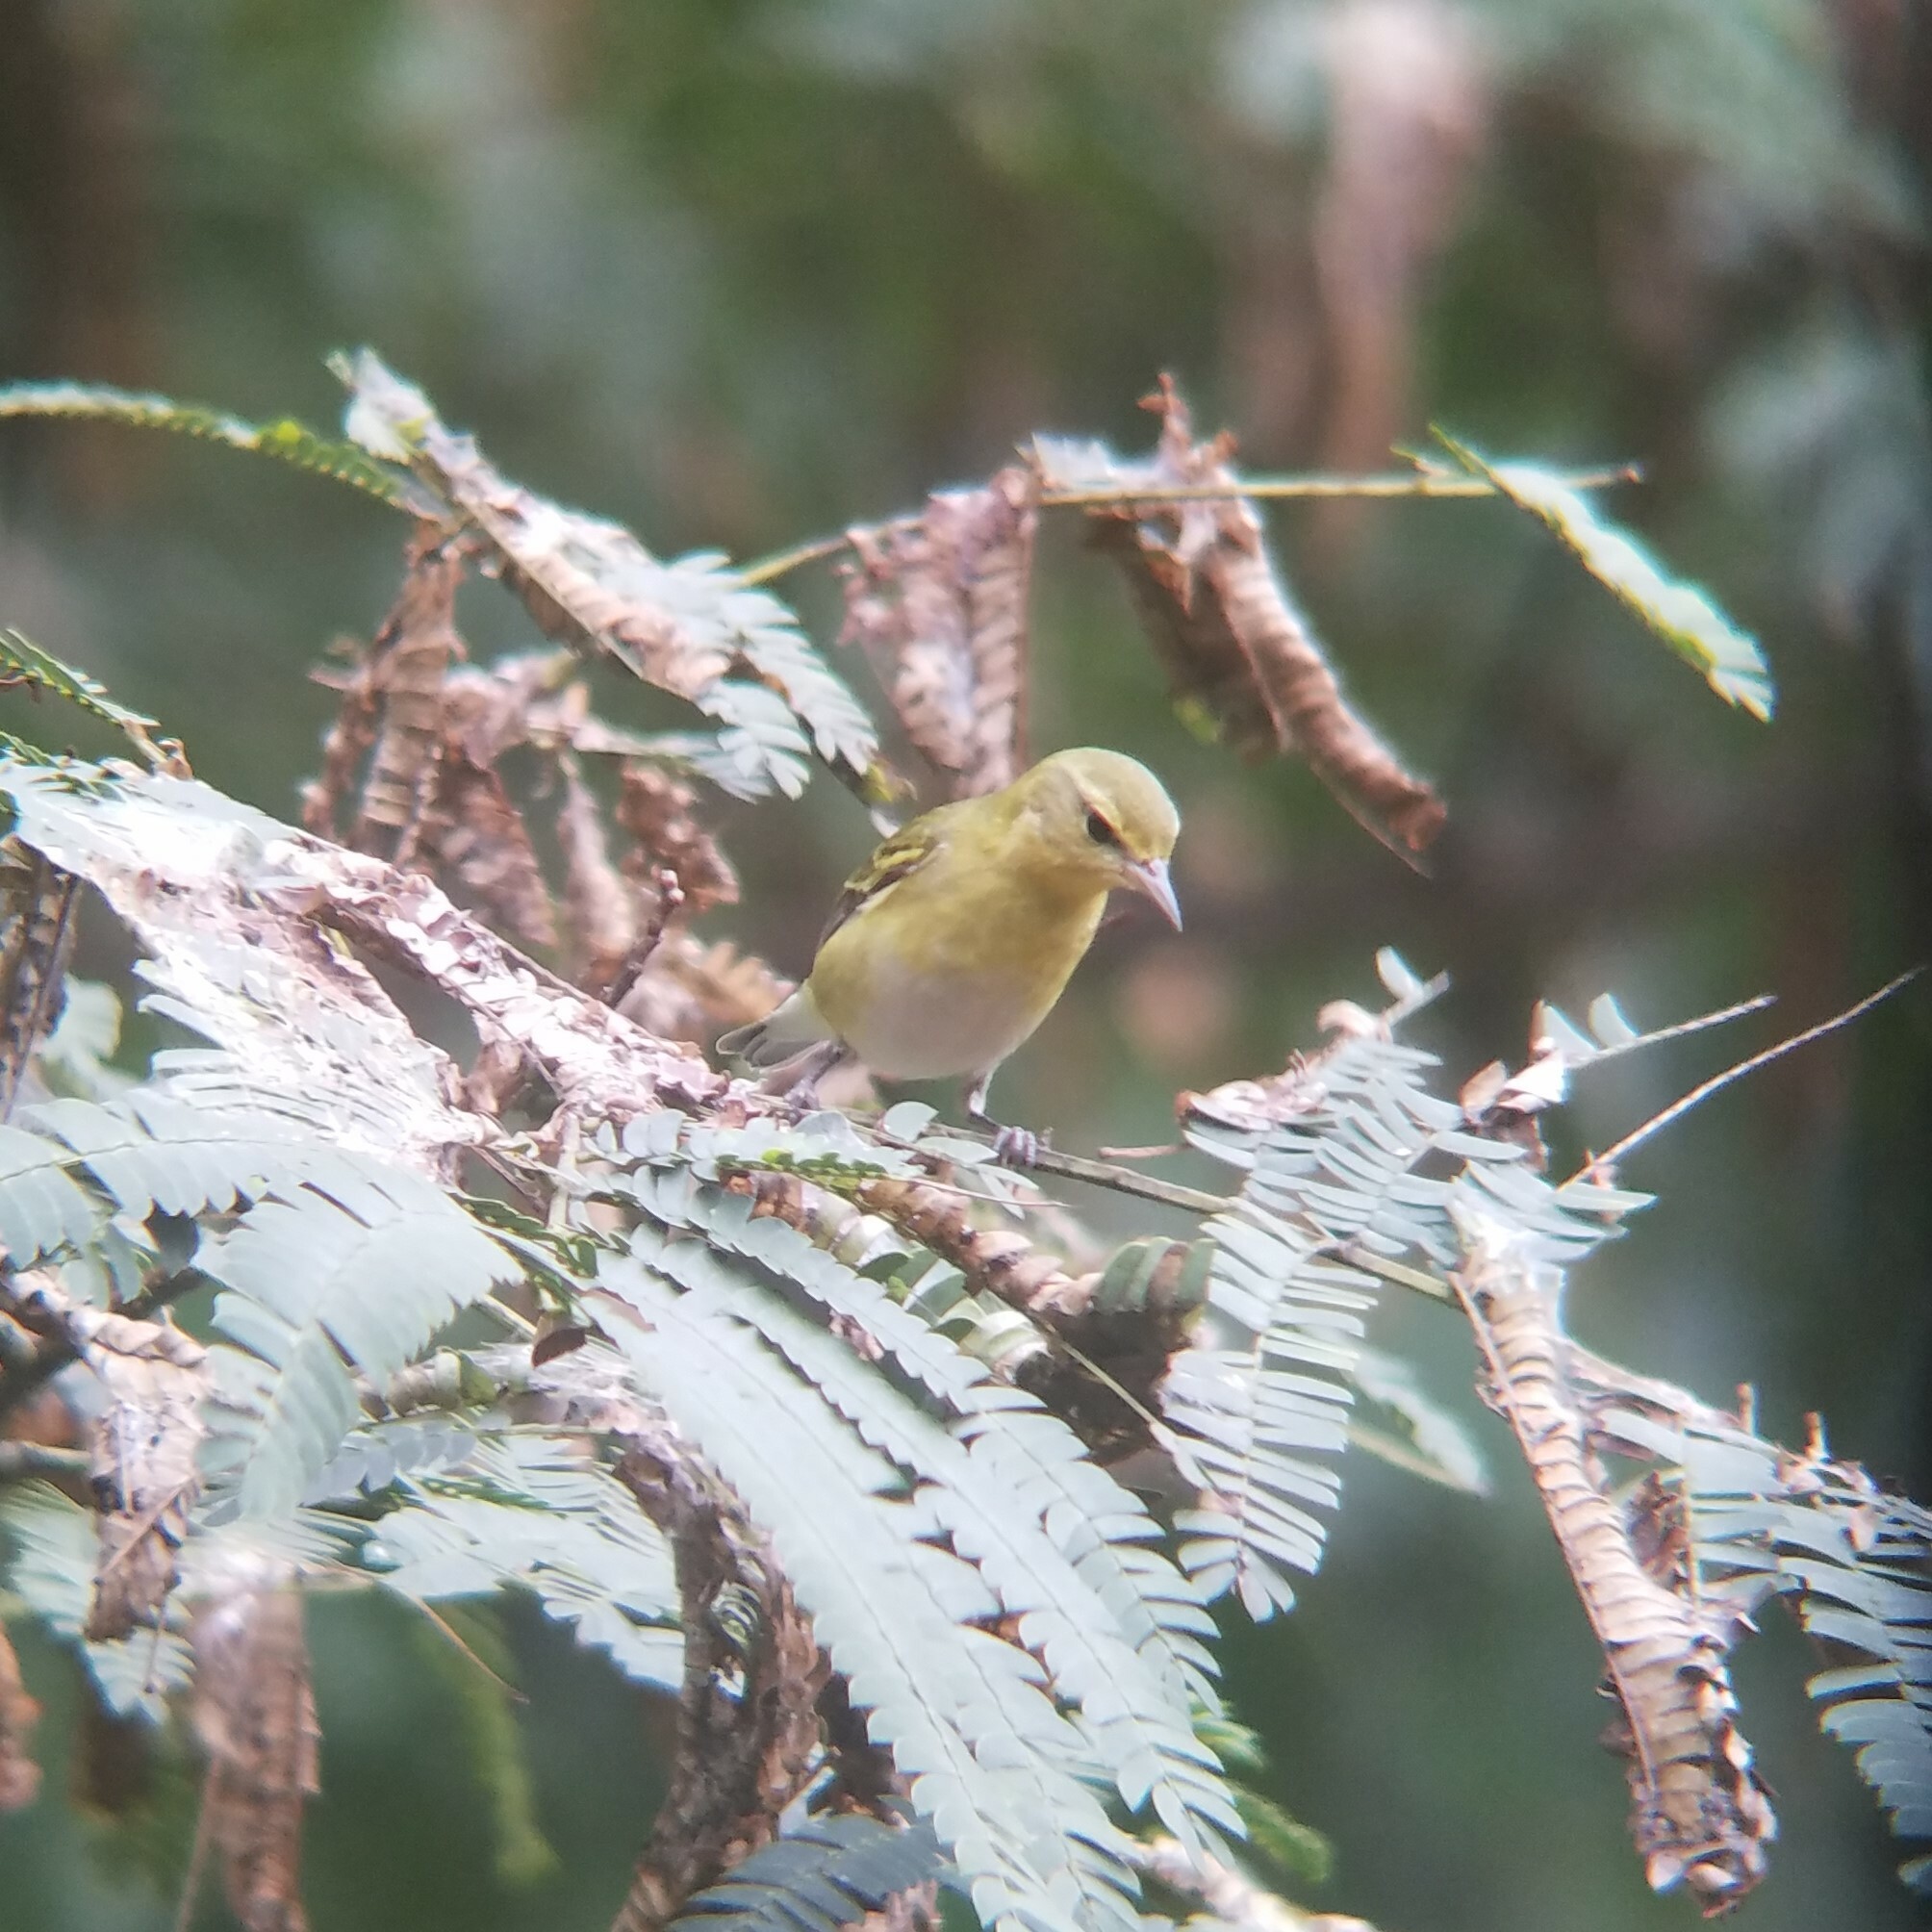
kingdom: Animalia
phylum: Chordata
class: Aves
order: Passeriformes
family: Parulidae
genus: Leiothlypis
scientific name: Leiothlypis peregrina
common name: Tennessee warbler
